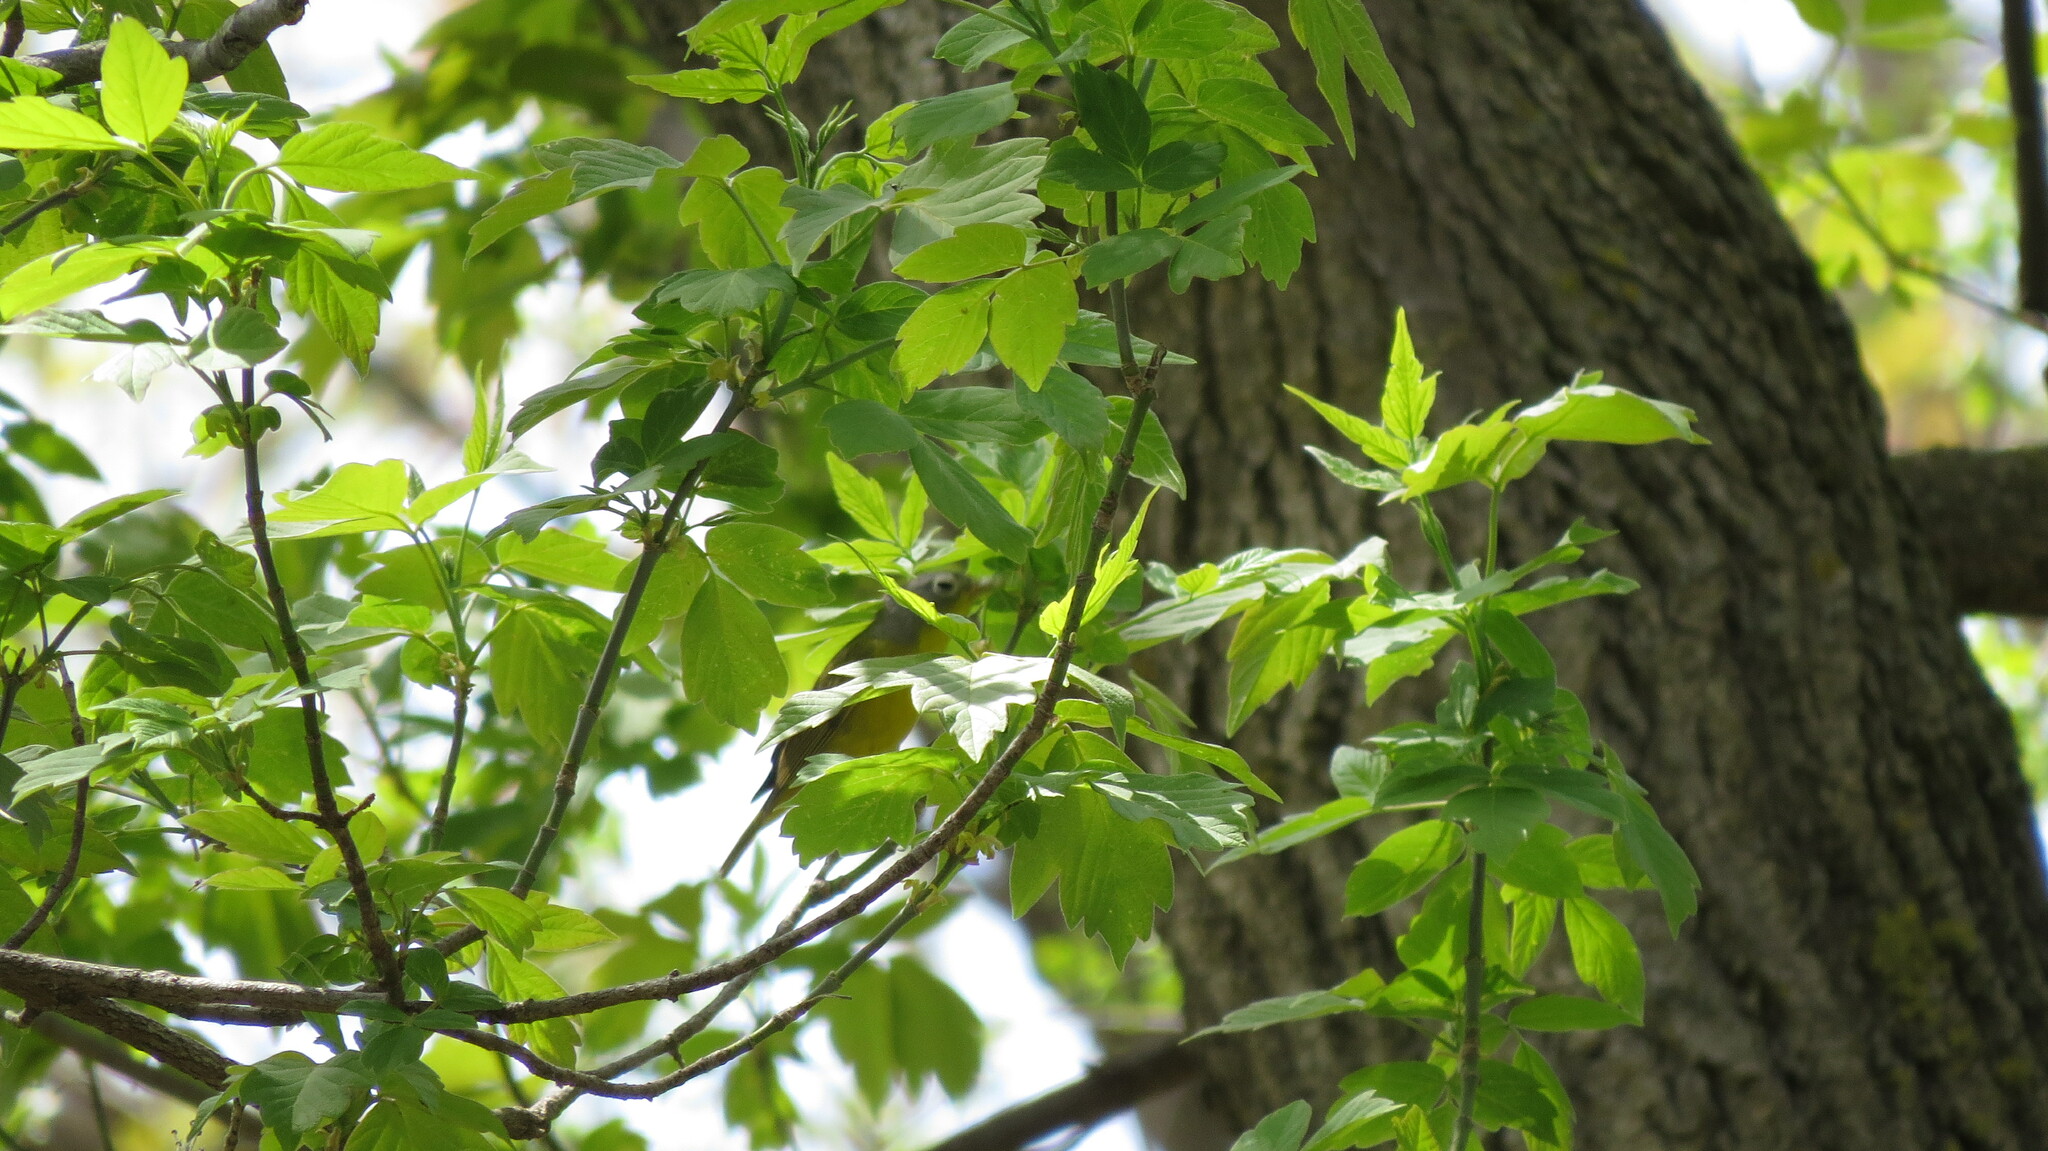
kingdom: Animalia
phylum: Chordata
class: Aves
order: Passeriformes
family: Parulidae
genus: Leiothlypis
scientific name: Leiothlypis ruficapilla
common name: Nashville warbler
